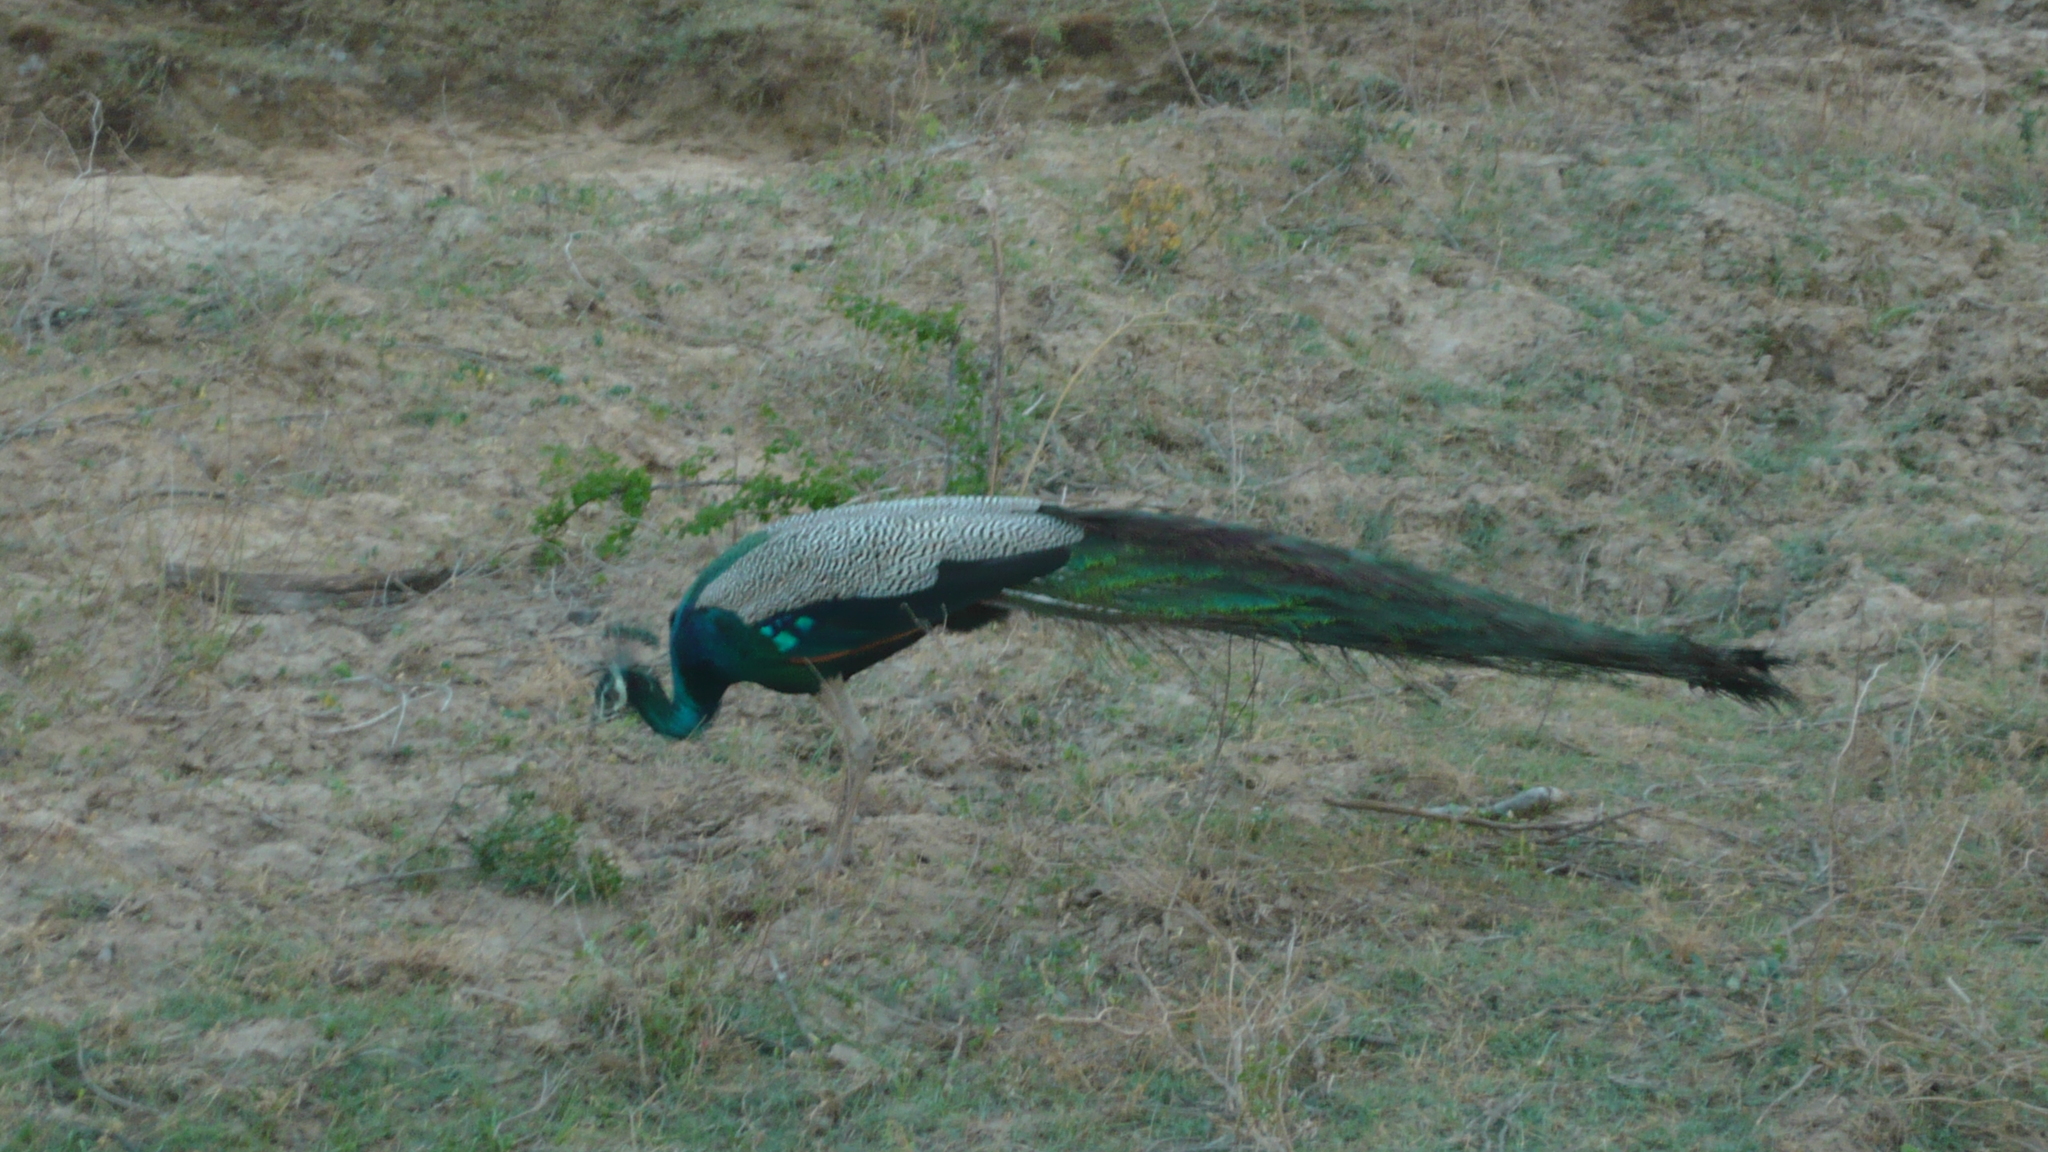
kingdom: Animalia
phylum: Chordata
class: Aves
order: Galliformes
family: Phasianidae
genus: Pavo
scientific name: Pavo cristatus
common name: Indian peafowl
